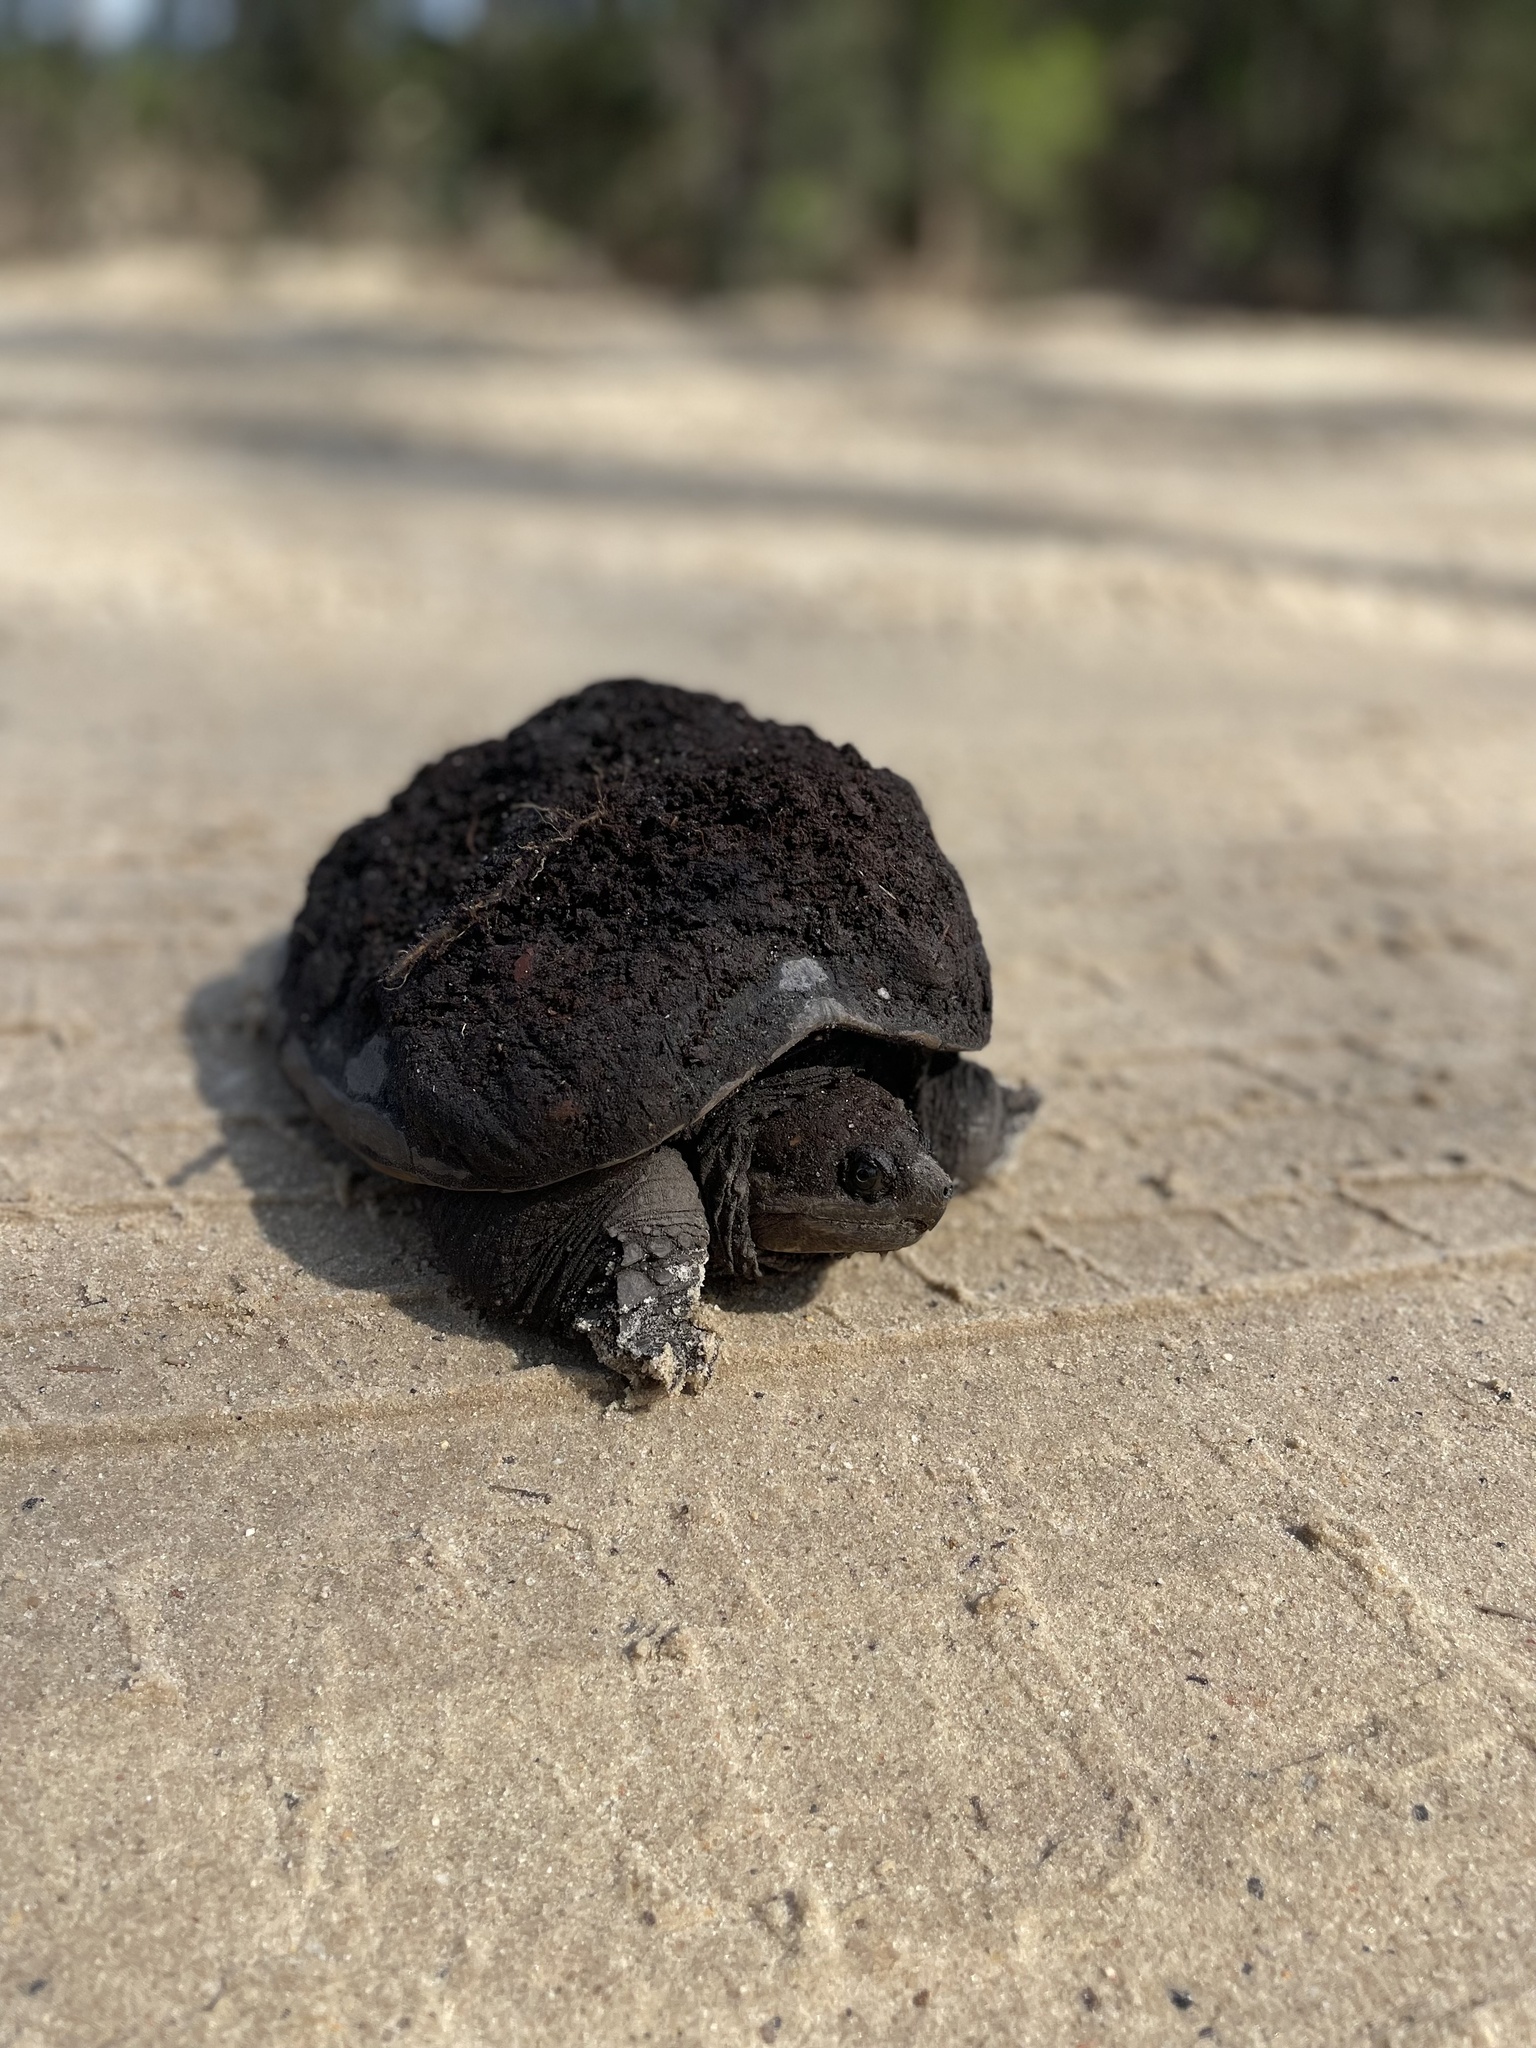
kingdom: Animalia
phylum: Chordata
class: Testudines
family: Chelydridae
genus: Chelydra
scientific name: Chelydra serpentina
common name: Common snapping turtle
